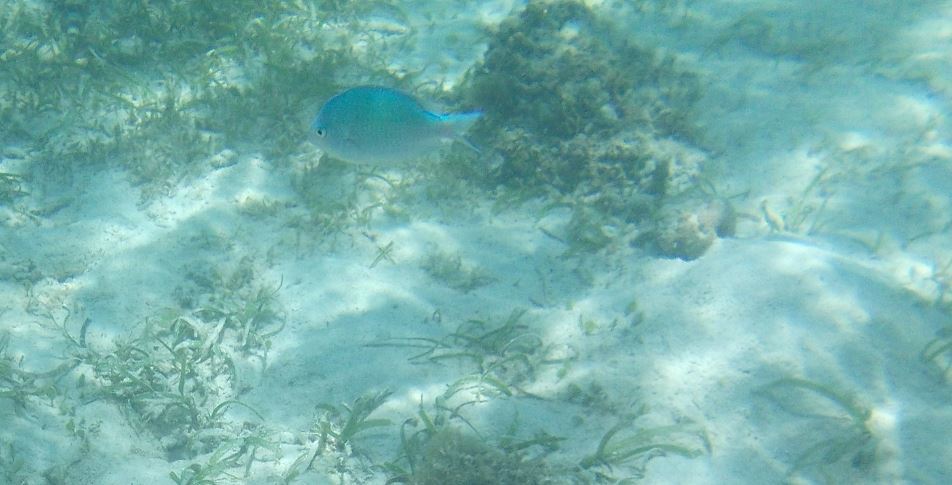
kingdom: Animalia
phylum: Chordata
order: Perciformes
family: Pomacentridae
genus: Chromis
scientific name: Chromis viridis
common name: Blue-green chromis
